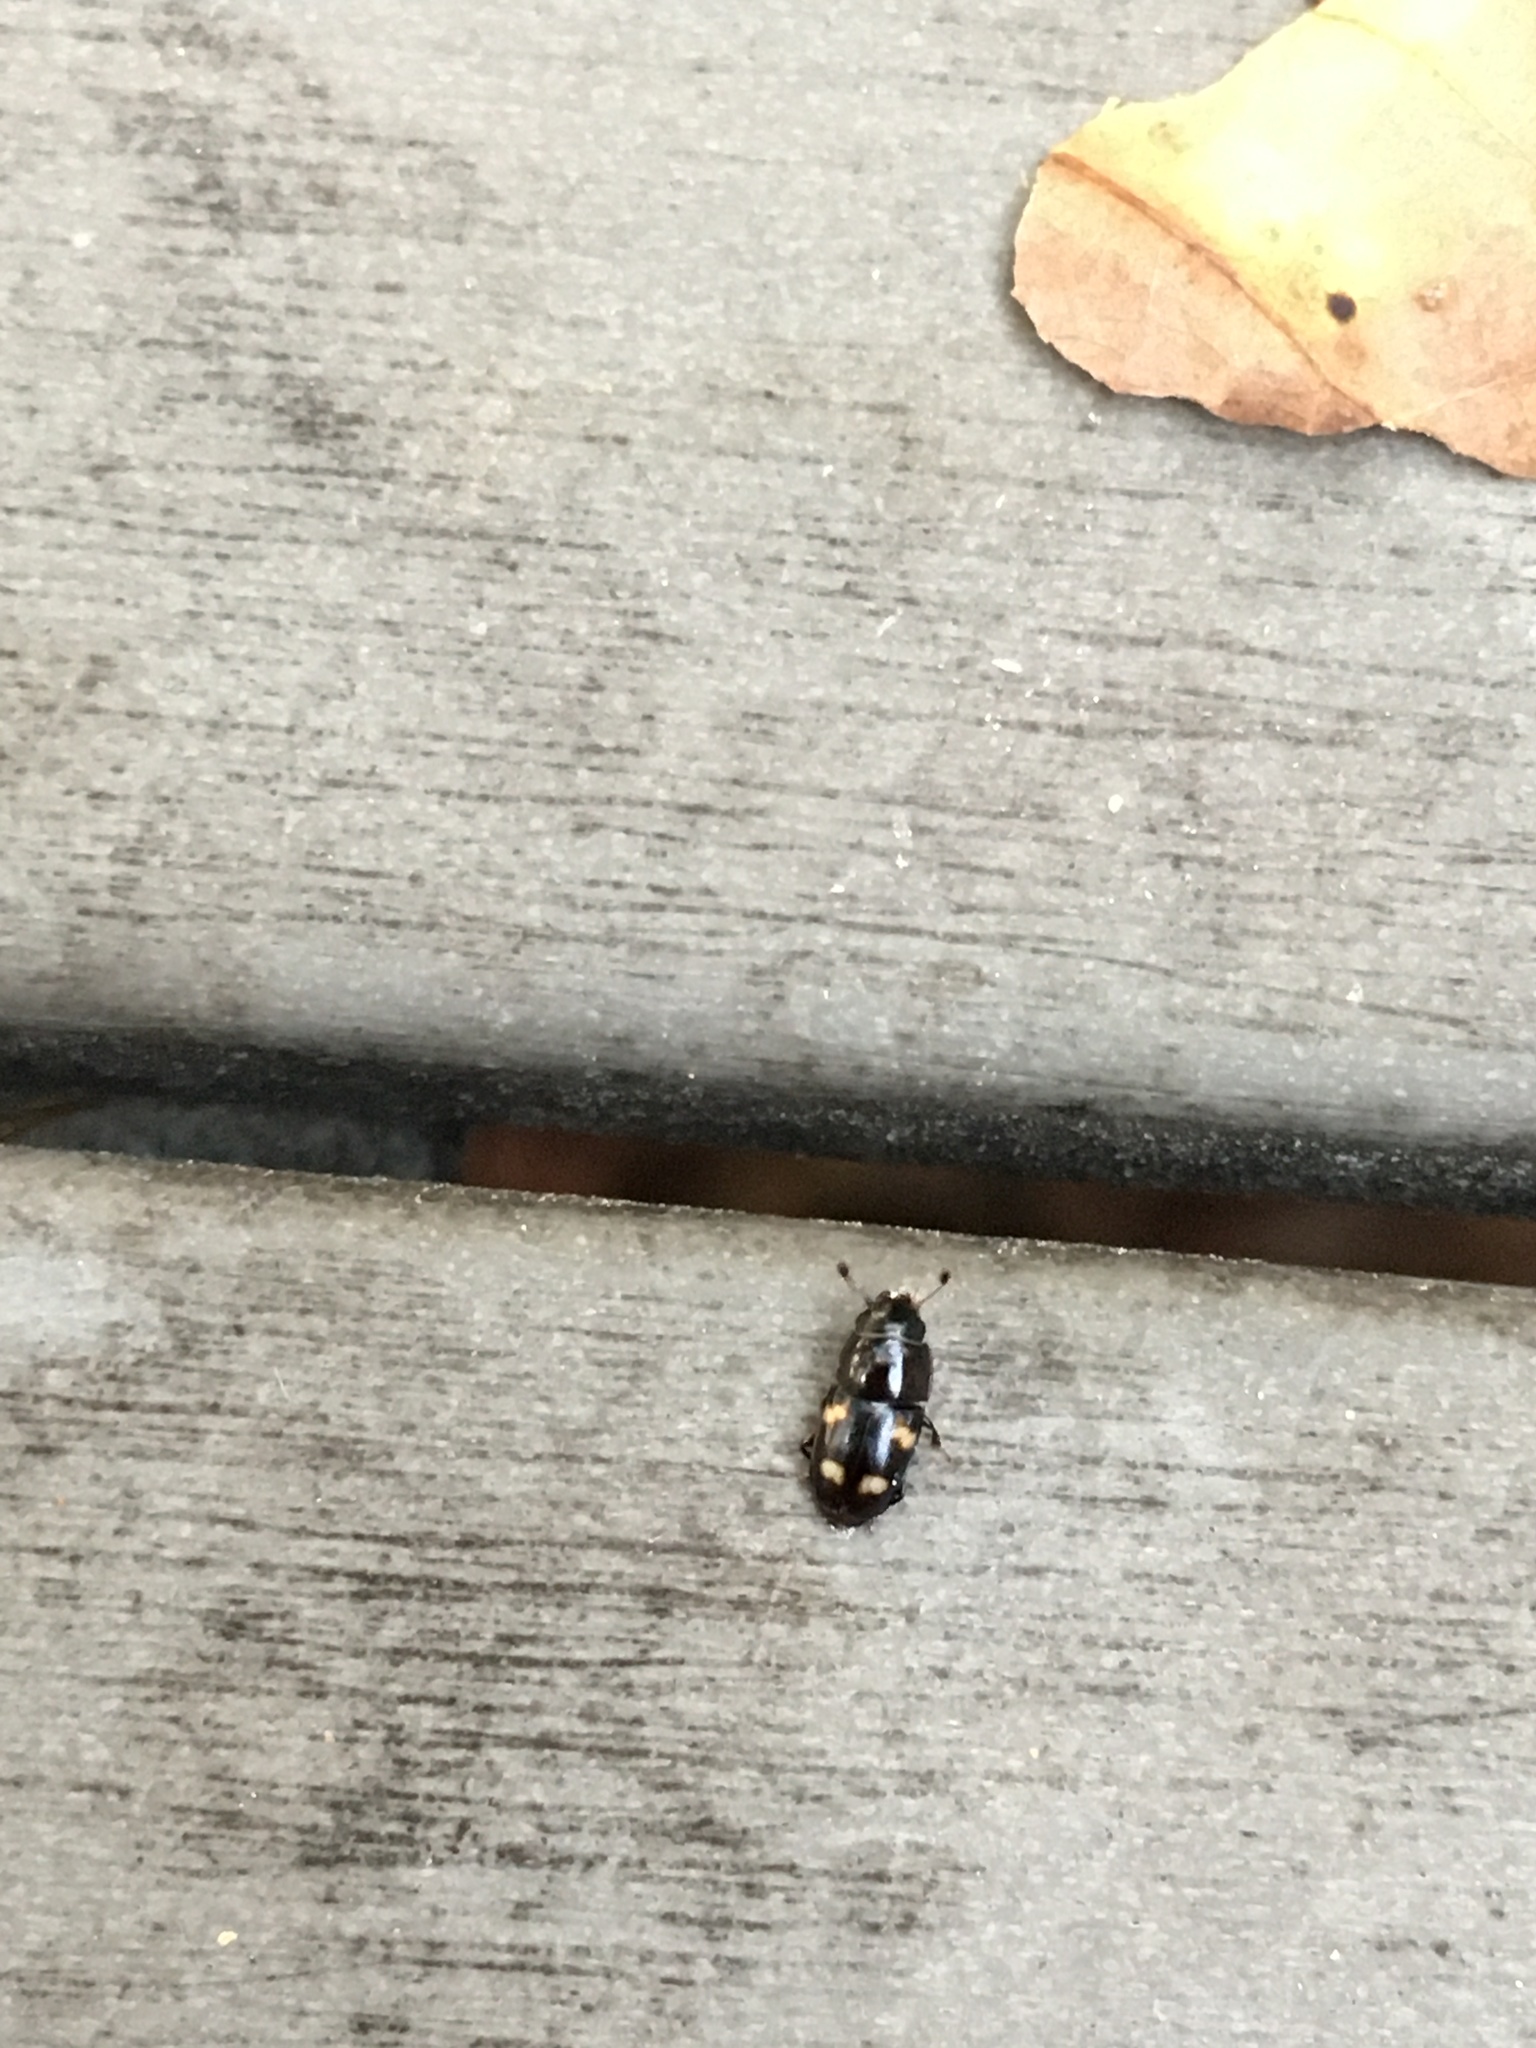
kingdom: Animalia
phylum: Arthropoda
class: Insecta
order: Coleoptera
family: Nitidulidae
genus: Glischrochilus
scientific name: Glischrochilus quadrisignatus
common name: Picnic beetle
